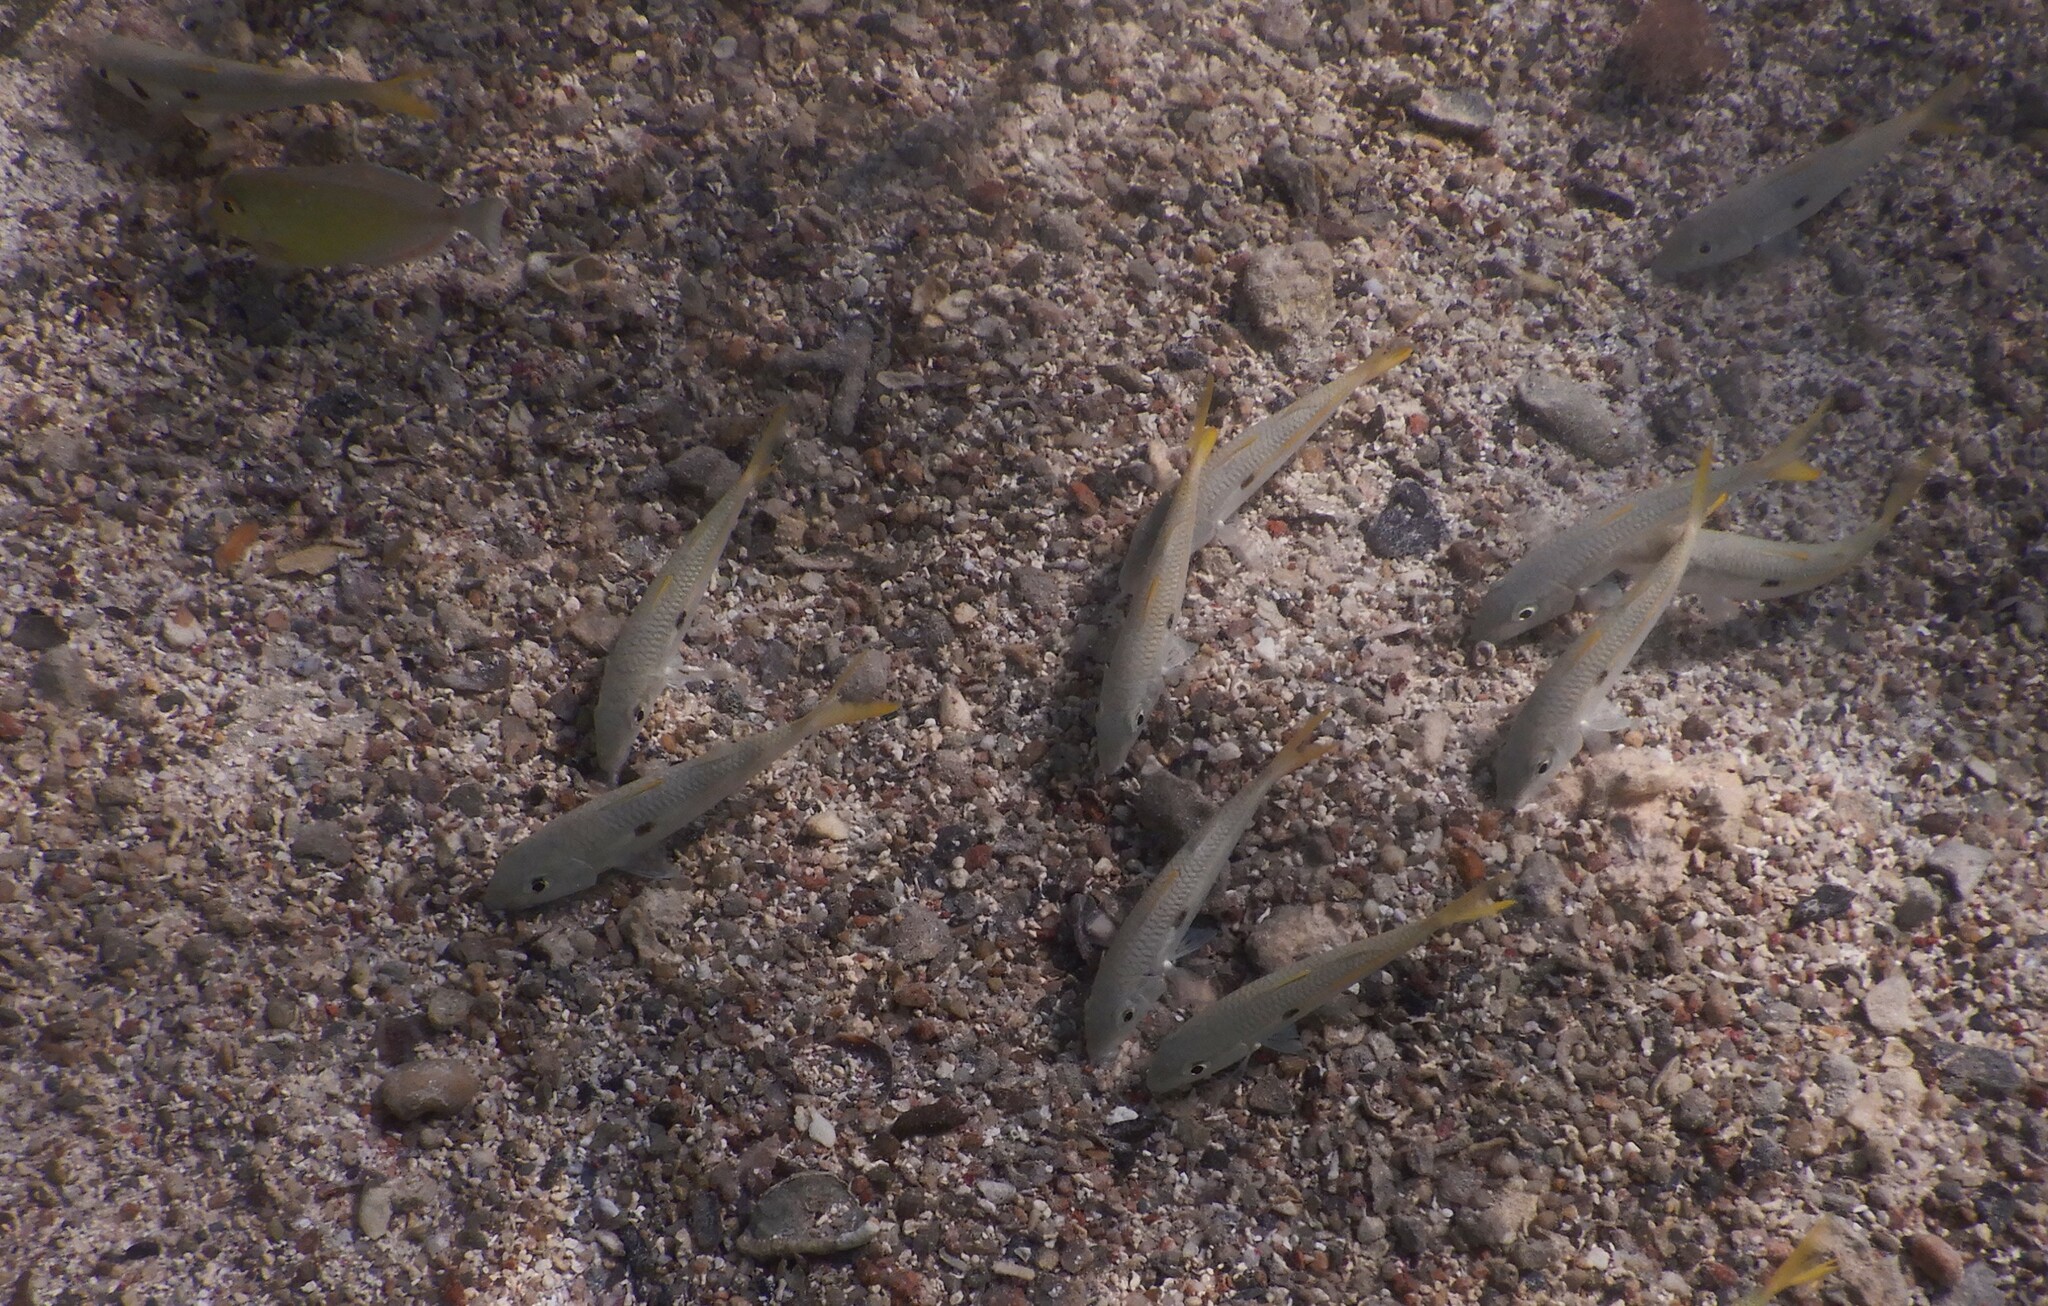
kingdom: Animalia
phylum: Chordata
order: Perciformes
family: Mullidae
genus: Mulloidichthys
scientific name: Mulloidichthys flavolineatus
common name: Yellowstripe goatfish
